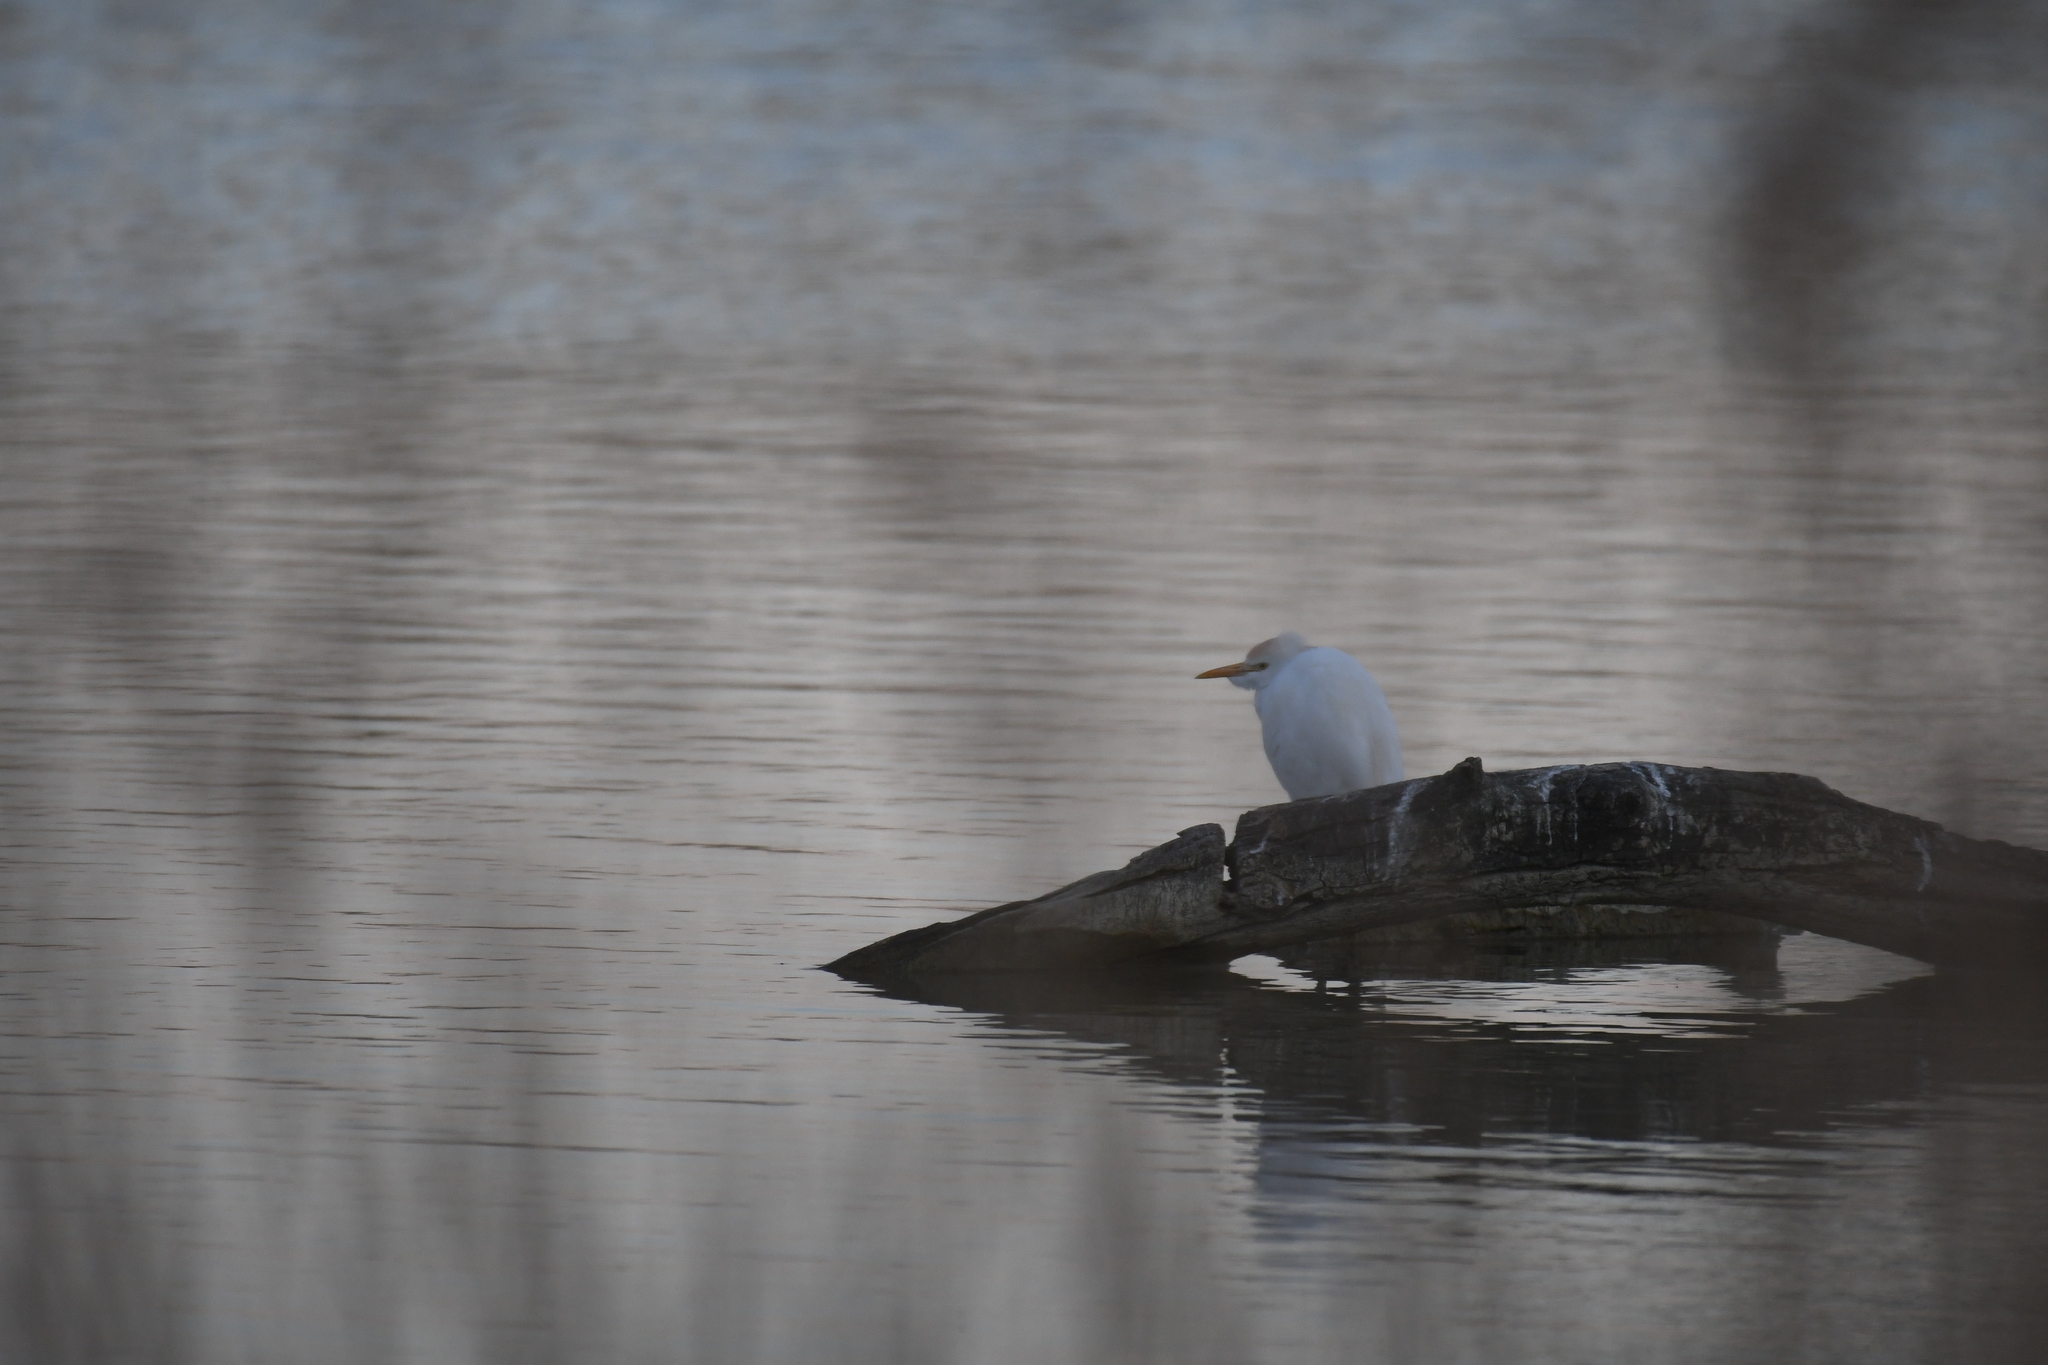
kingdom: Animalia
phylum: Chordata
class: Aves
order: Pelecaniformes
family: Ardeidae
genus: Bubulcus
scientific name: Bubulcus ibis
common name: Cattle egret
